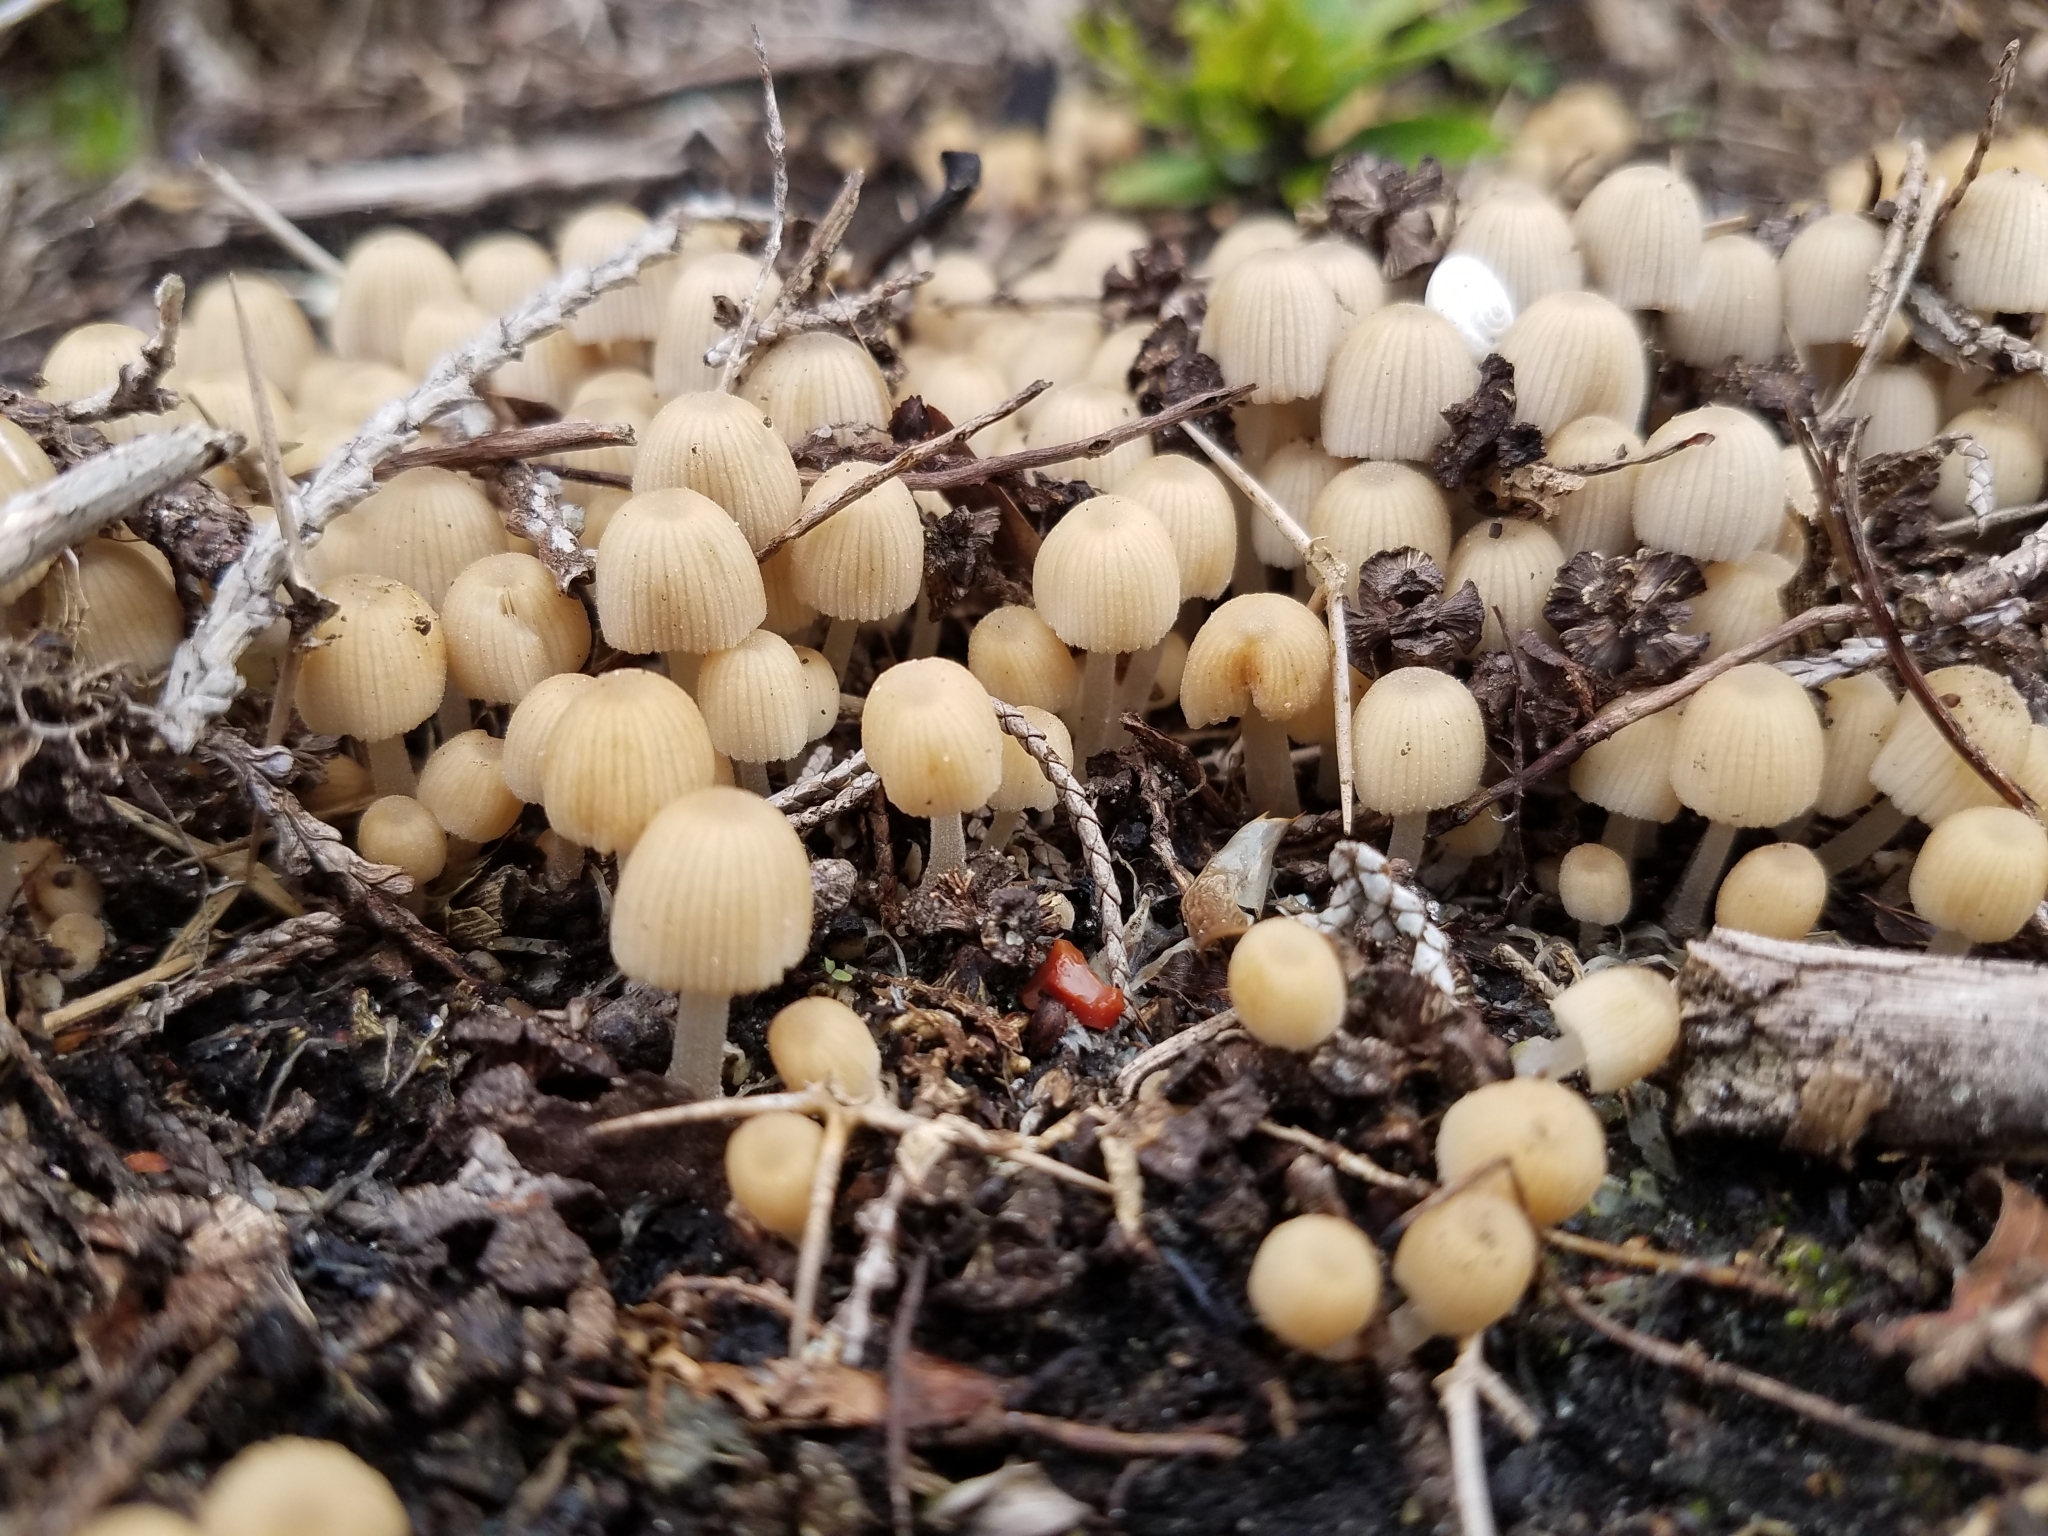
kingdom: Fungi
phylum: Basidiomycota
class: Agaricomycetes
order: Agaricales
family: Psathyrellaceae
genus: Coprinellus
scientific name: Coprinellus disseminatus
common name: Fairies' bonnets
